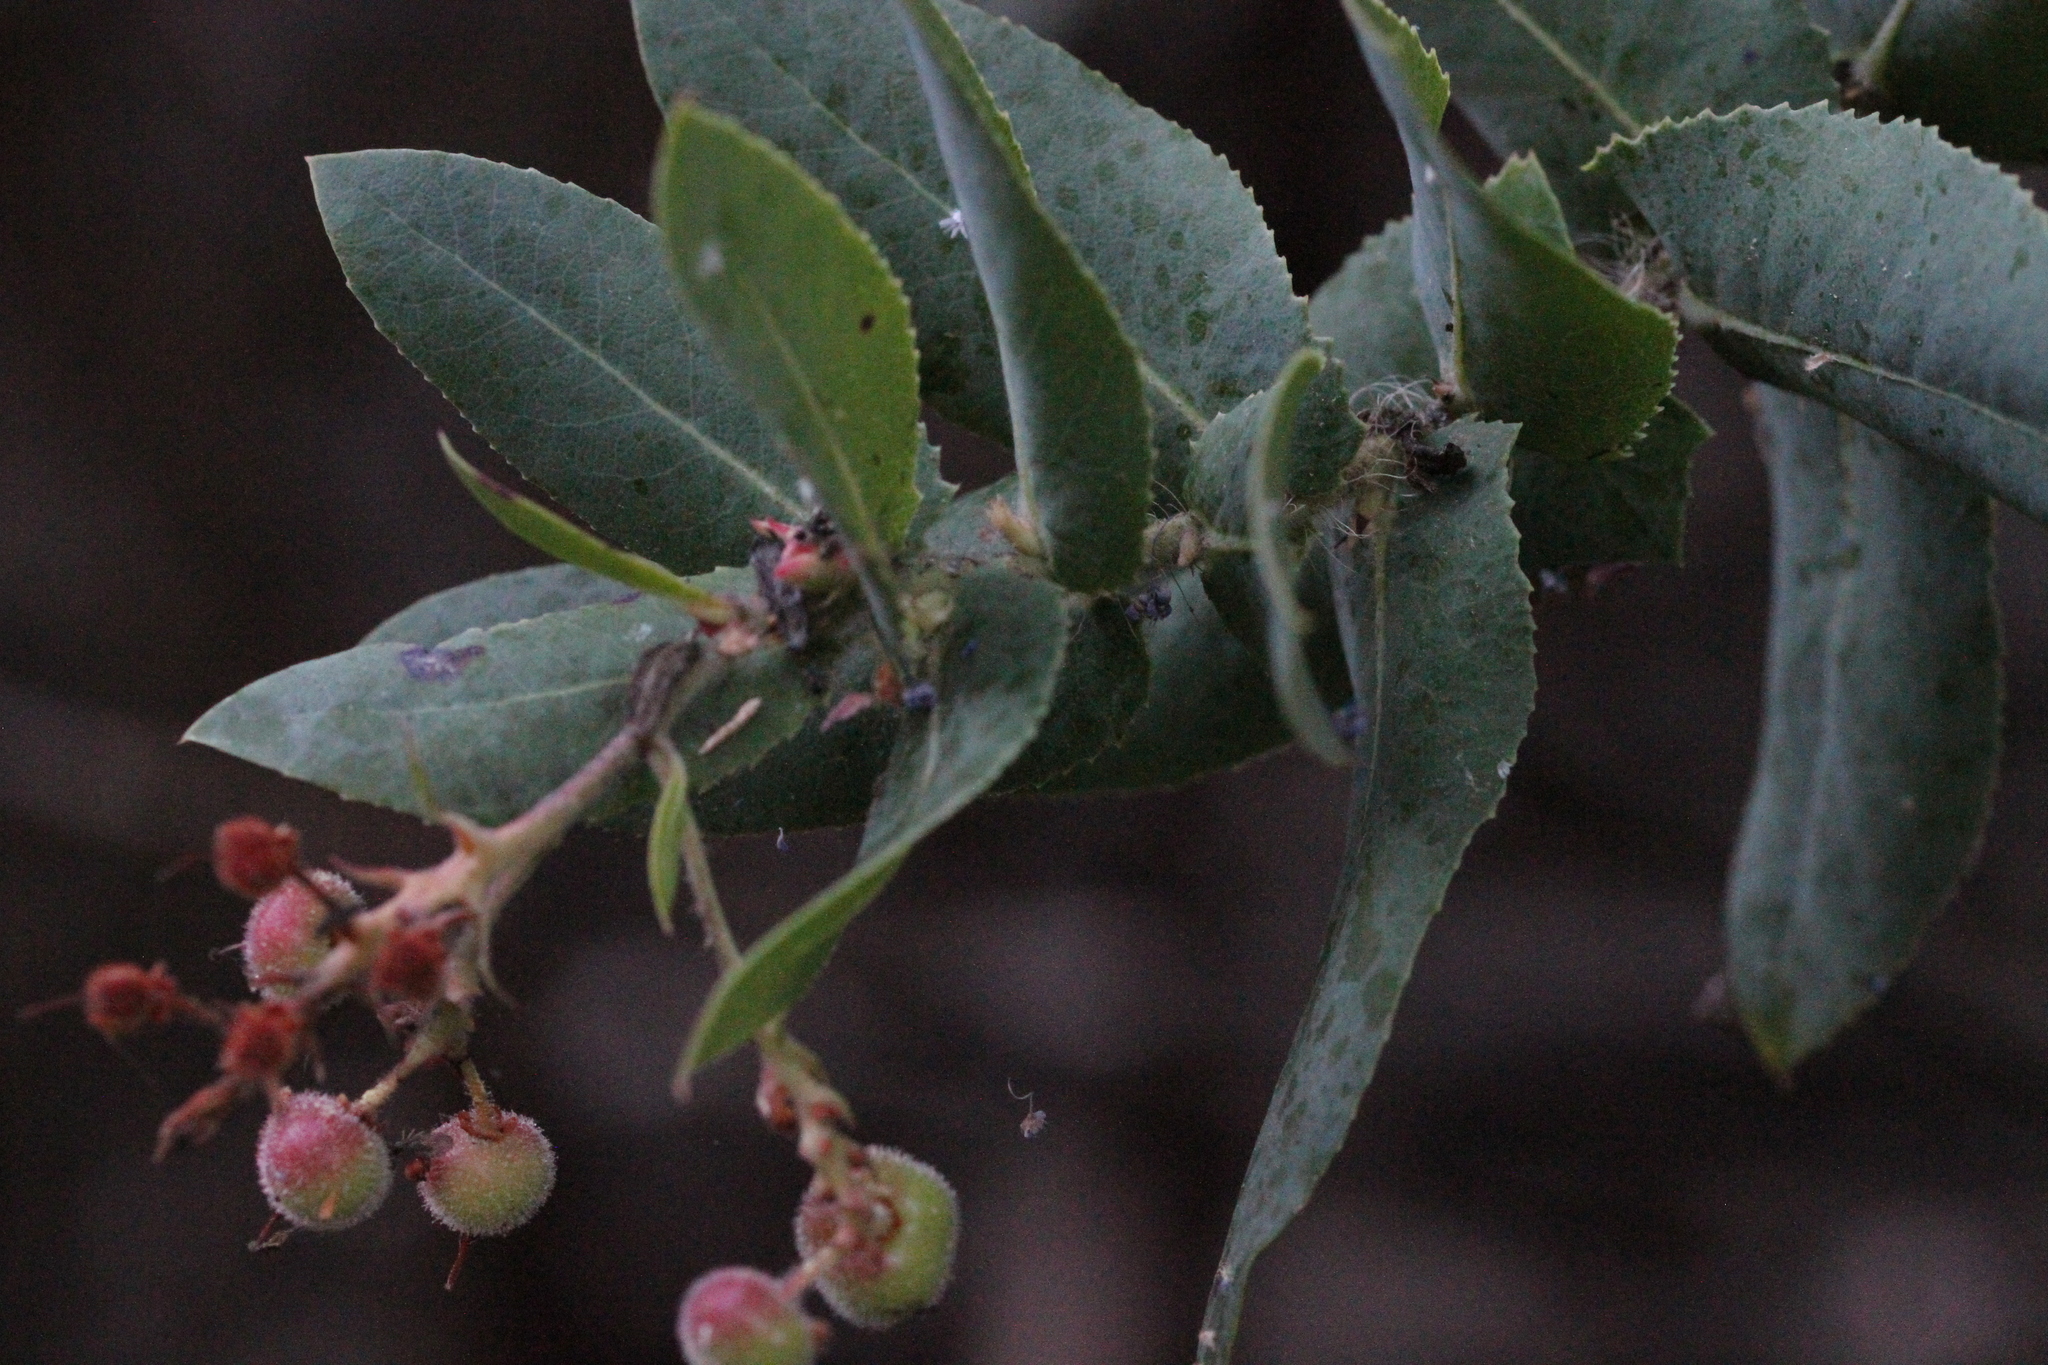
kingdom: Plantae
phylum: Tracheophyta
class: Magnoliopsida
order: Ericales
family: Ericaceae
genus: Arctostaphylos
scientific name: Arctostaphylos andersonii
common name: Santa cruz manzanita
